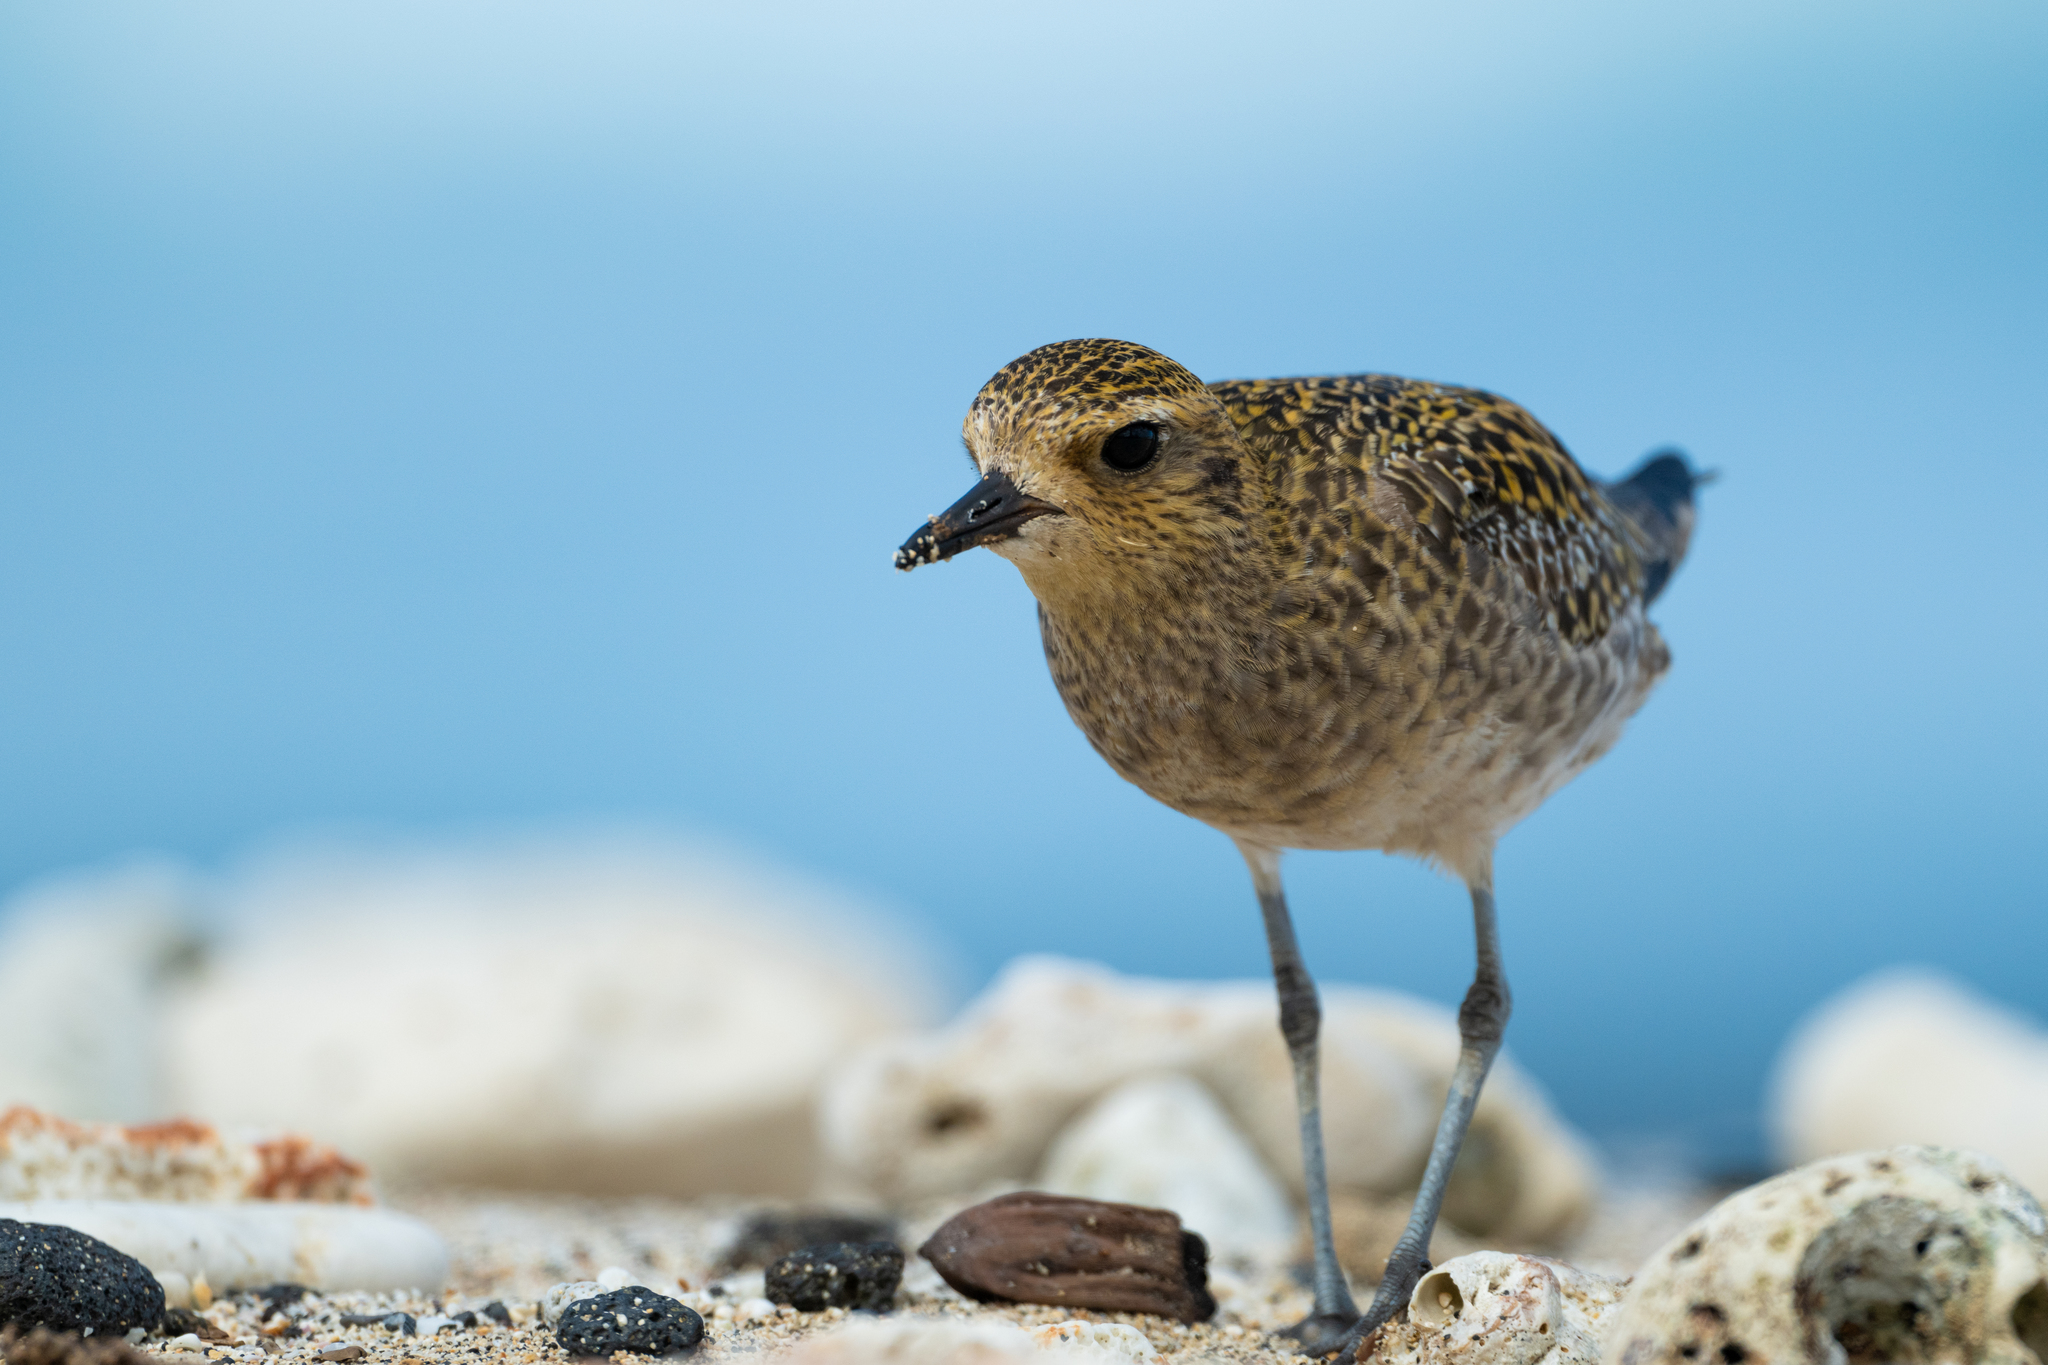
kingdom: Animalia
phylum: Chordata
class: Aves
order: Charadriiformes
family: Charadriidae
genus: Pluvialis
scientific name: Pluvialis fulva
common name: Pacific golden plover
